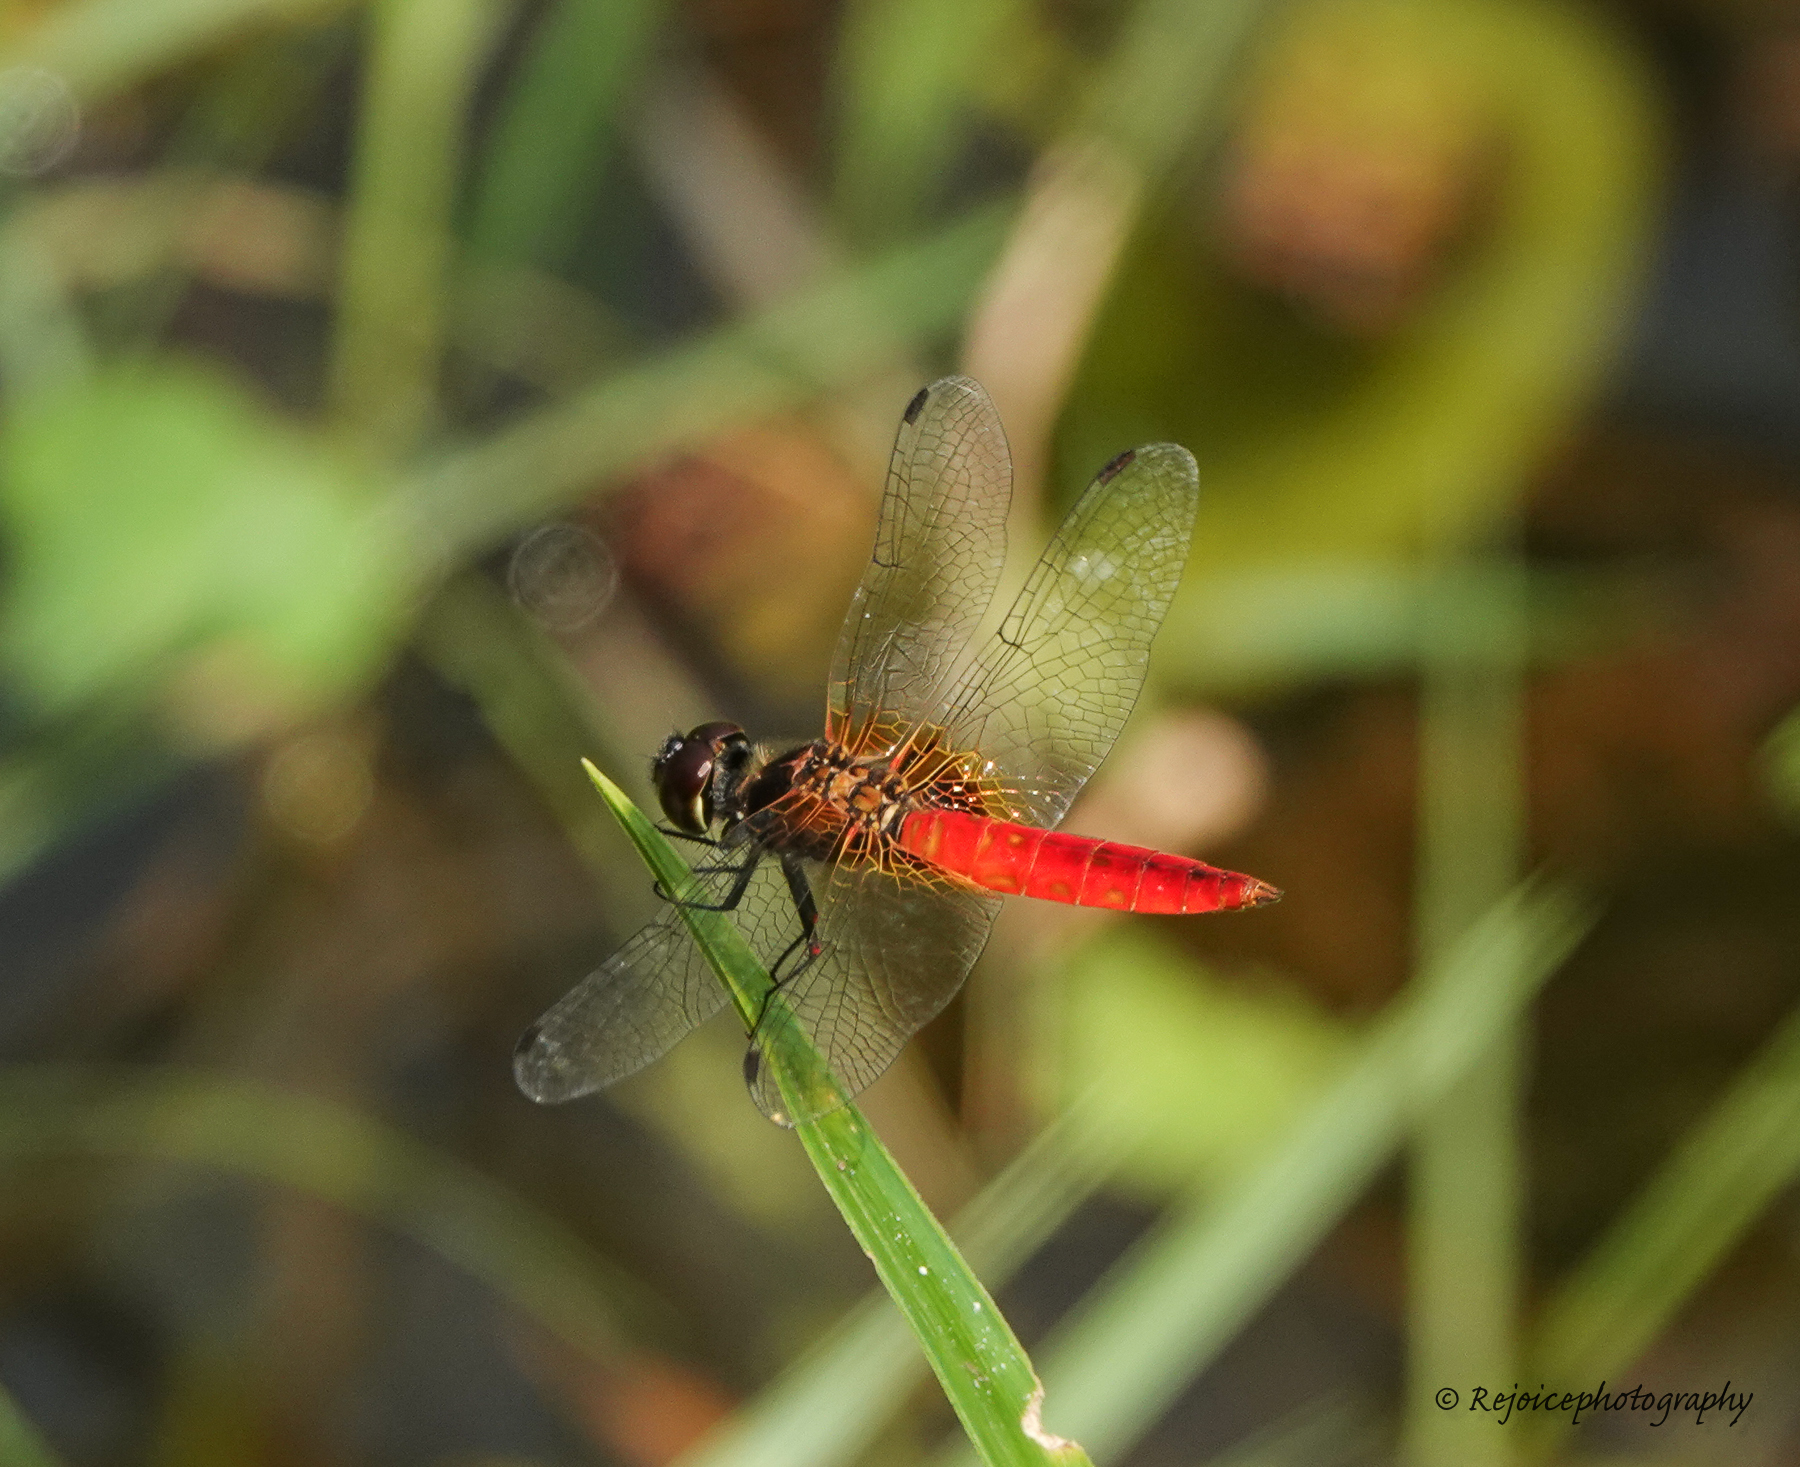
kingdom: Animalia
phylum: Arthropoda
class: Insecta
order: Odonata
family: Libellulidae
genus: Aethriamanta
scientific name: Aethriamanta brevipennis
